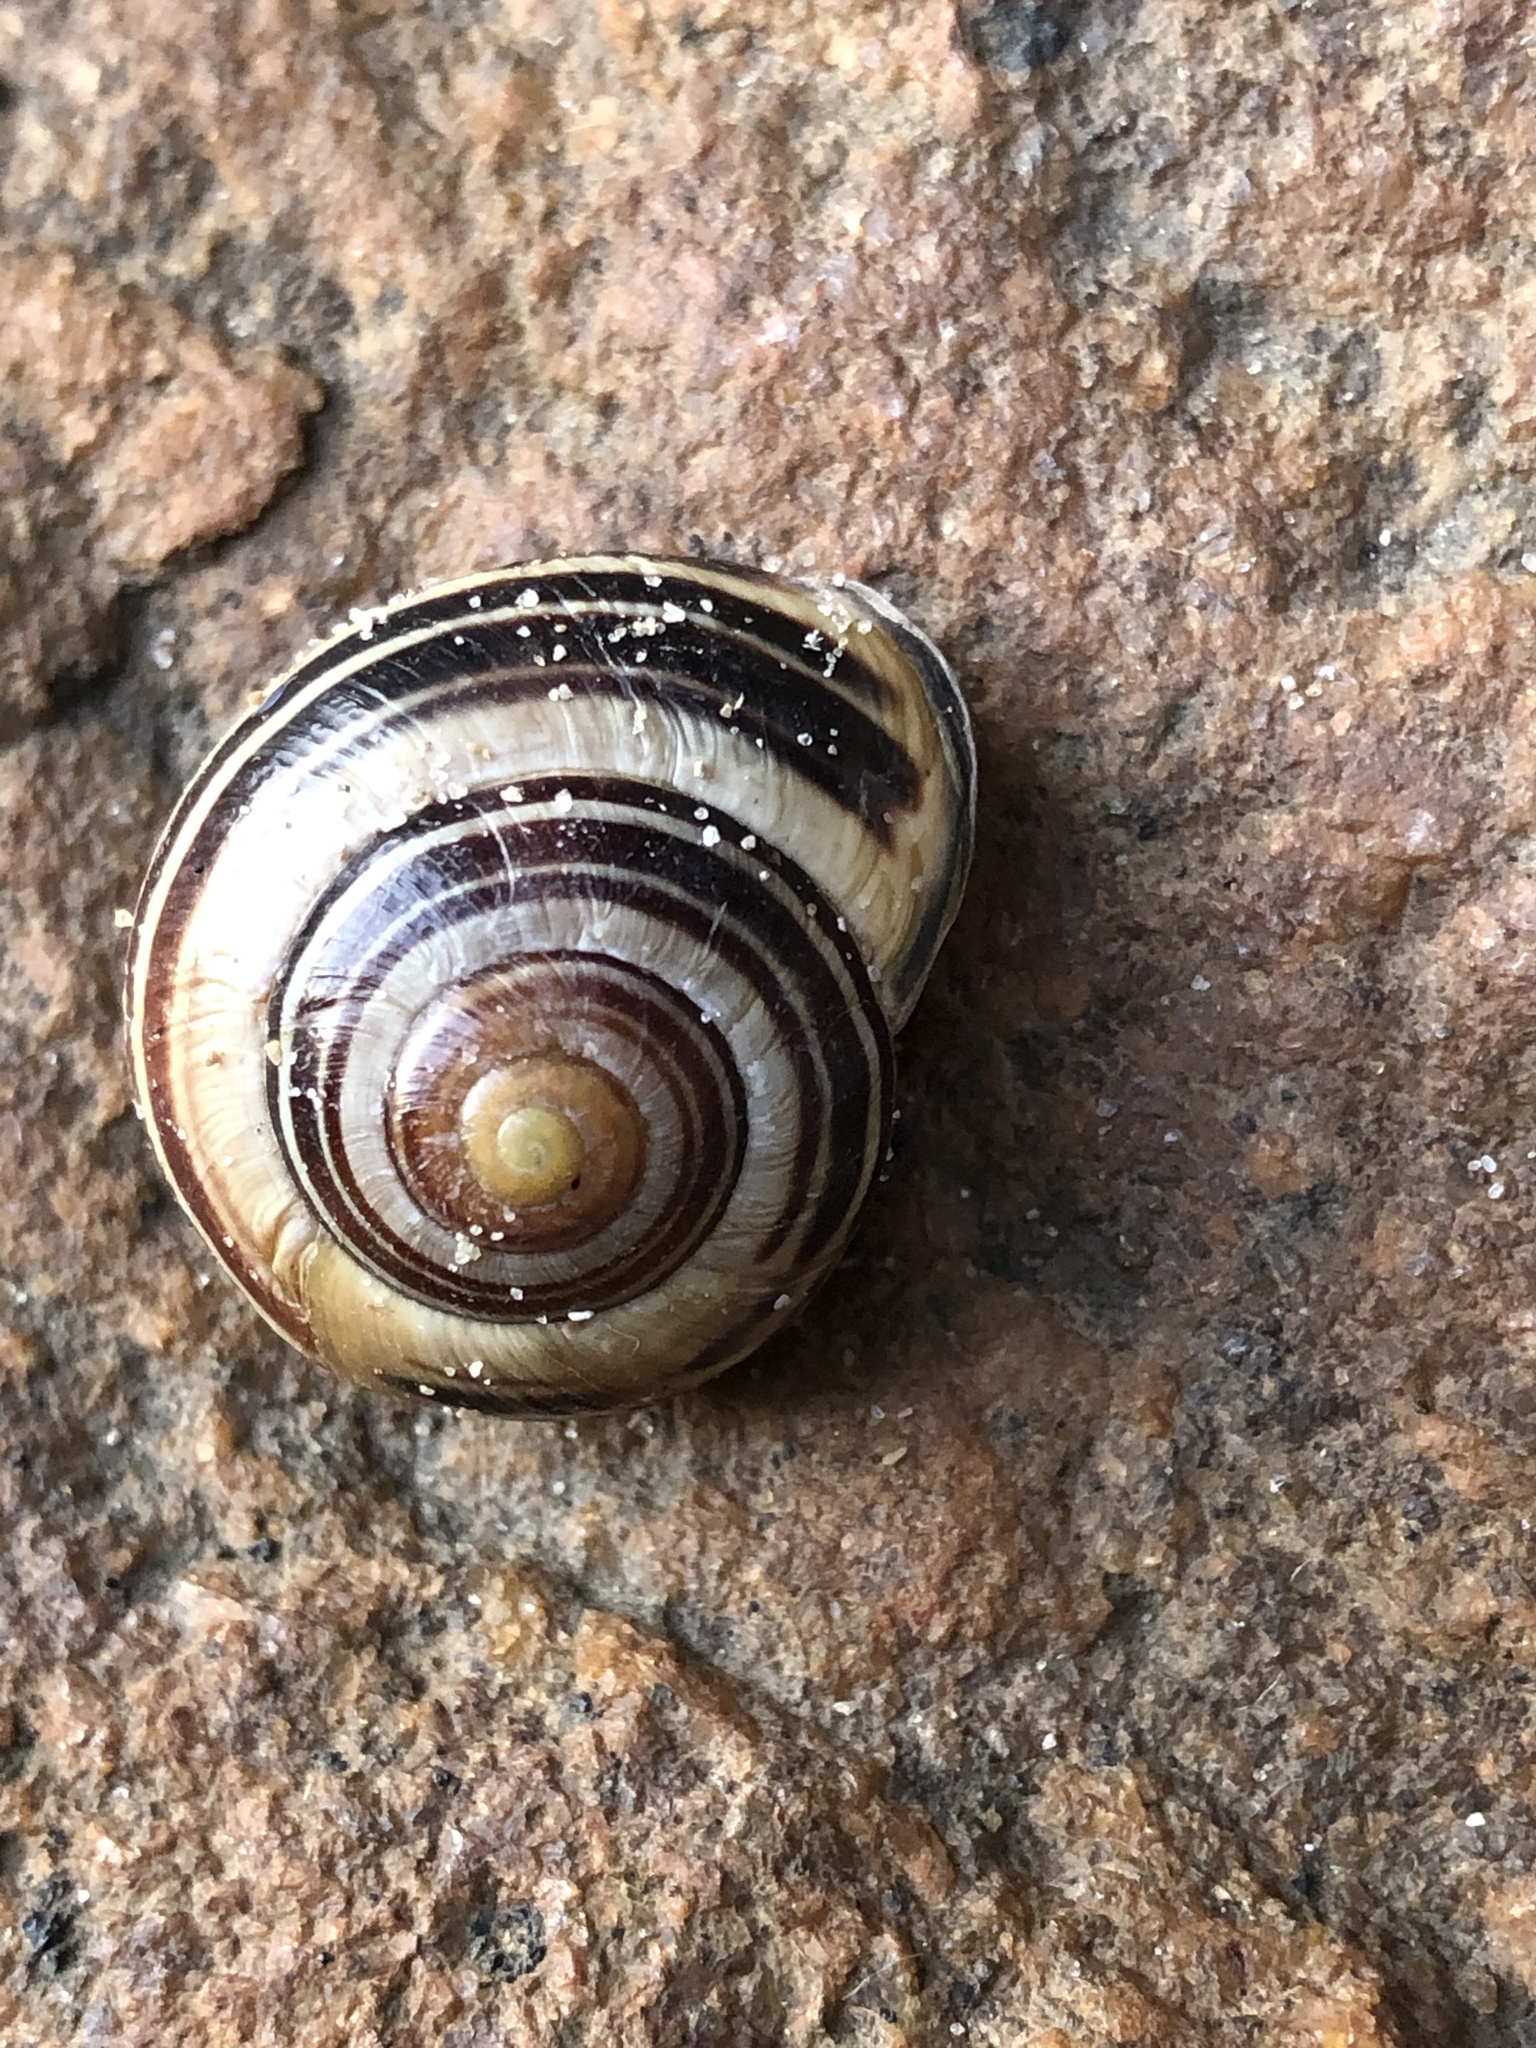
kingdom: Animalia
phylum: Mollusca
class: Gastropoda
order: Stylommatophora
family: Helicidae
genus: Cepaea
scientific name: Cepaea nemoralis
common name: Grovesnail
